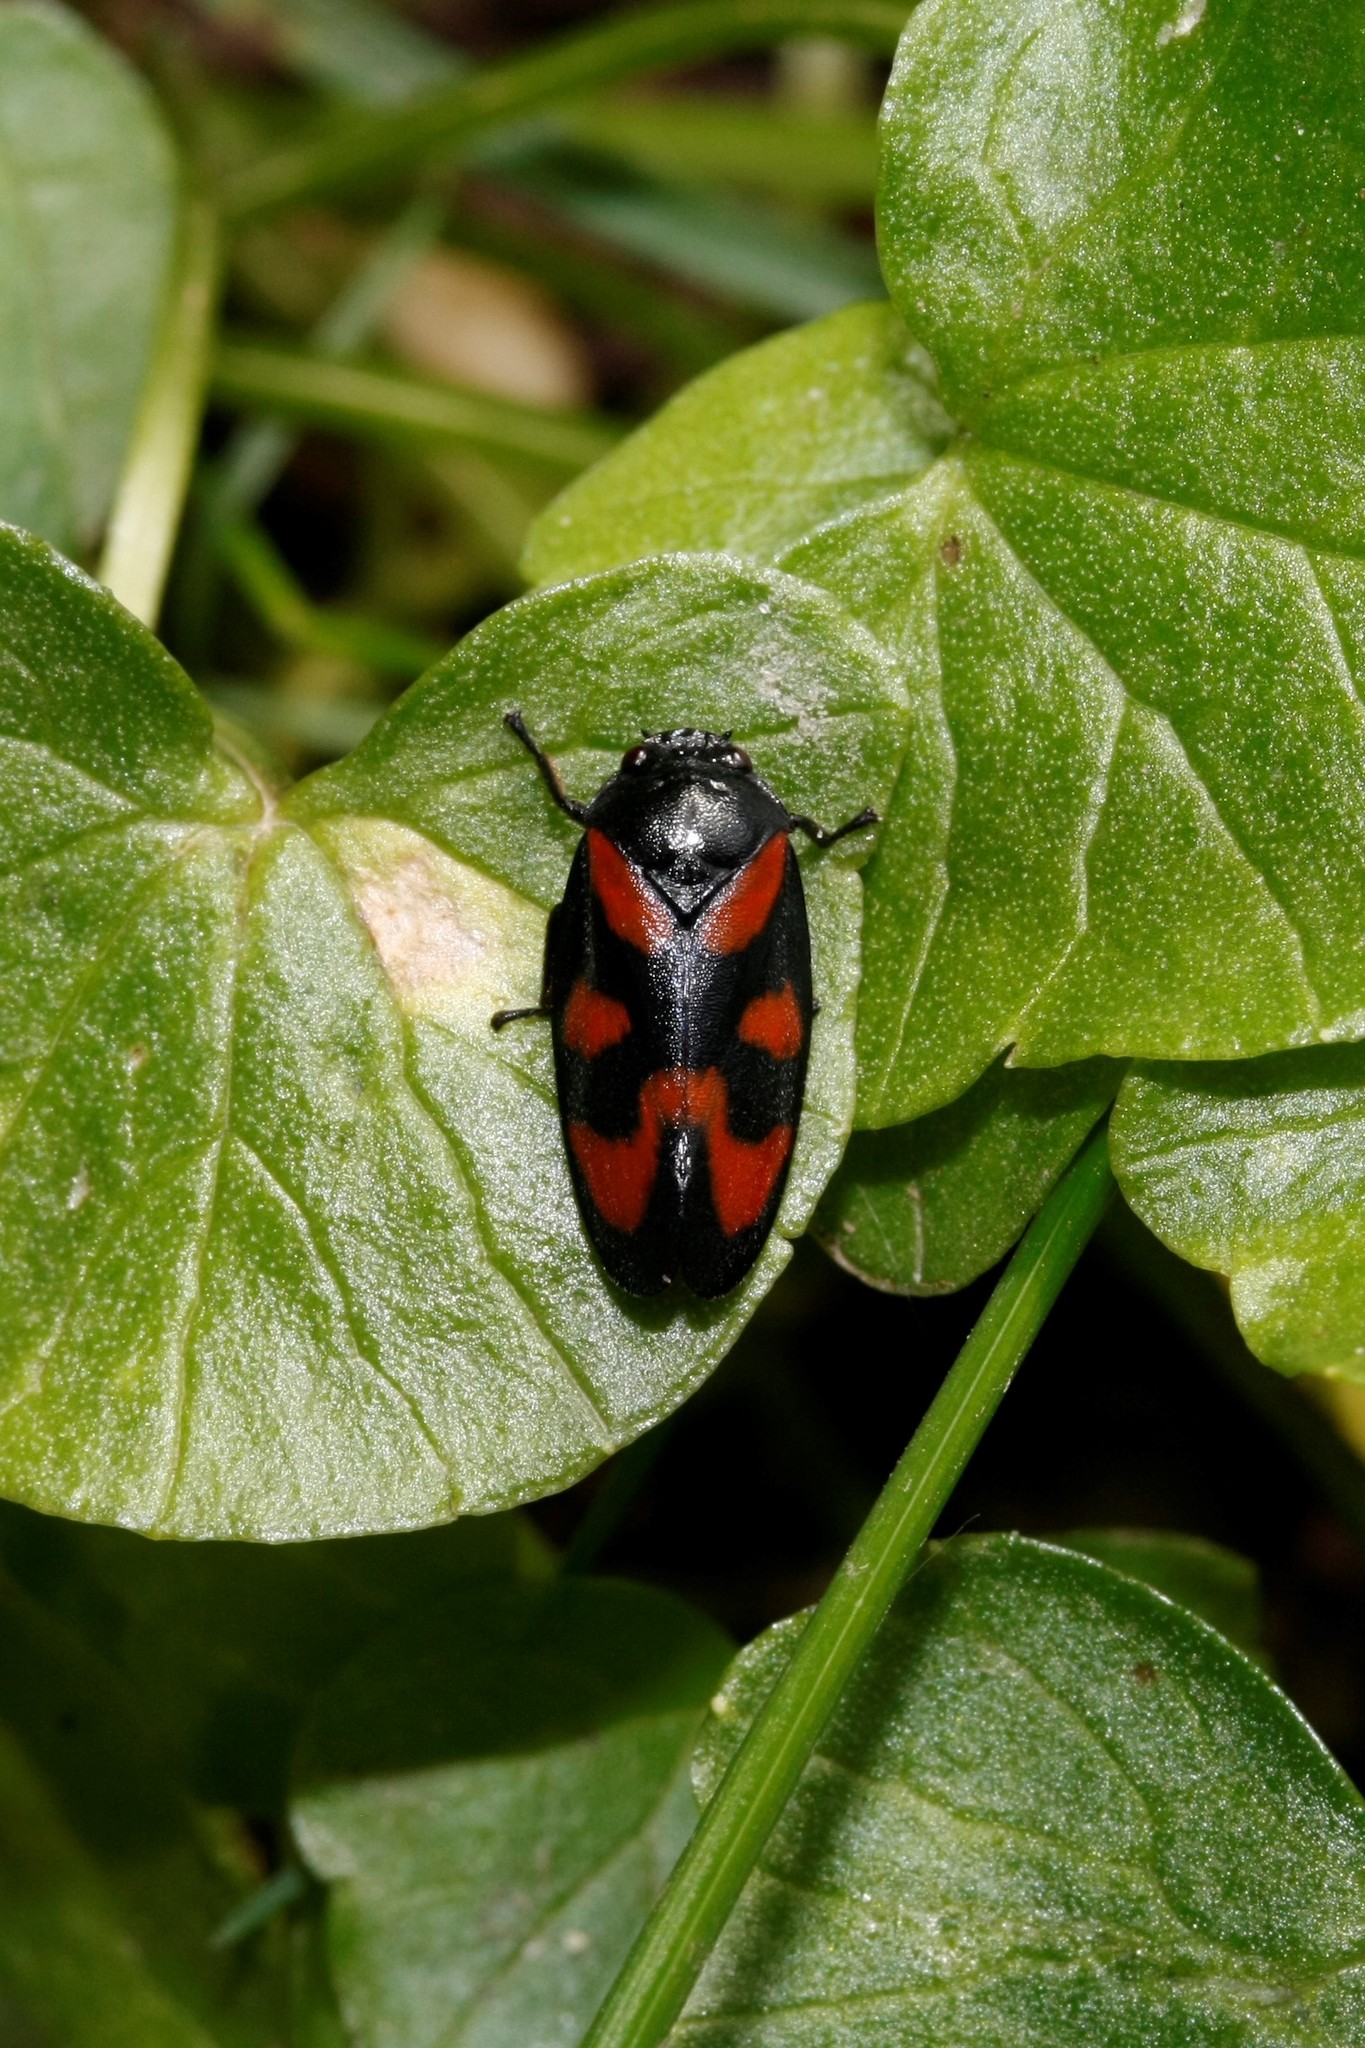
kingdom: Animalia
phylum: Arthropoda
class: Insecta
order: Hemiptera
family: Cercopidae
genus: Cercopis
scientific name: Cercopis vulnerata
